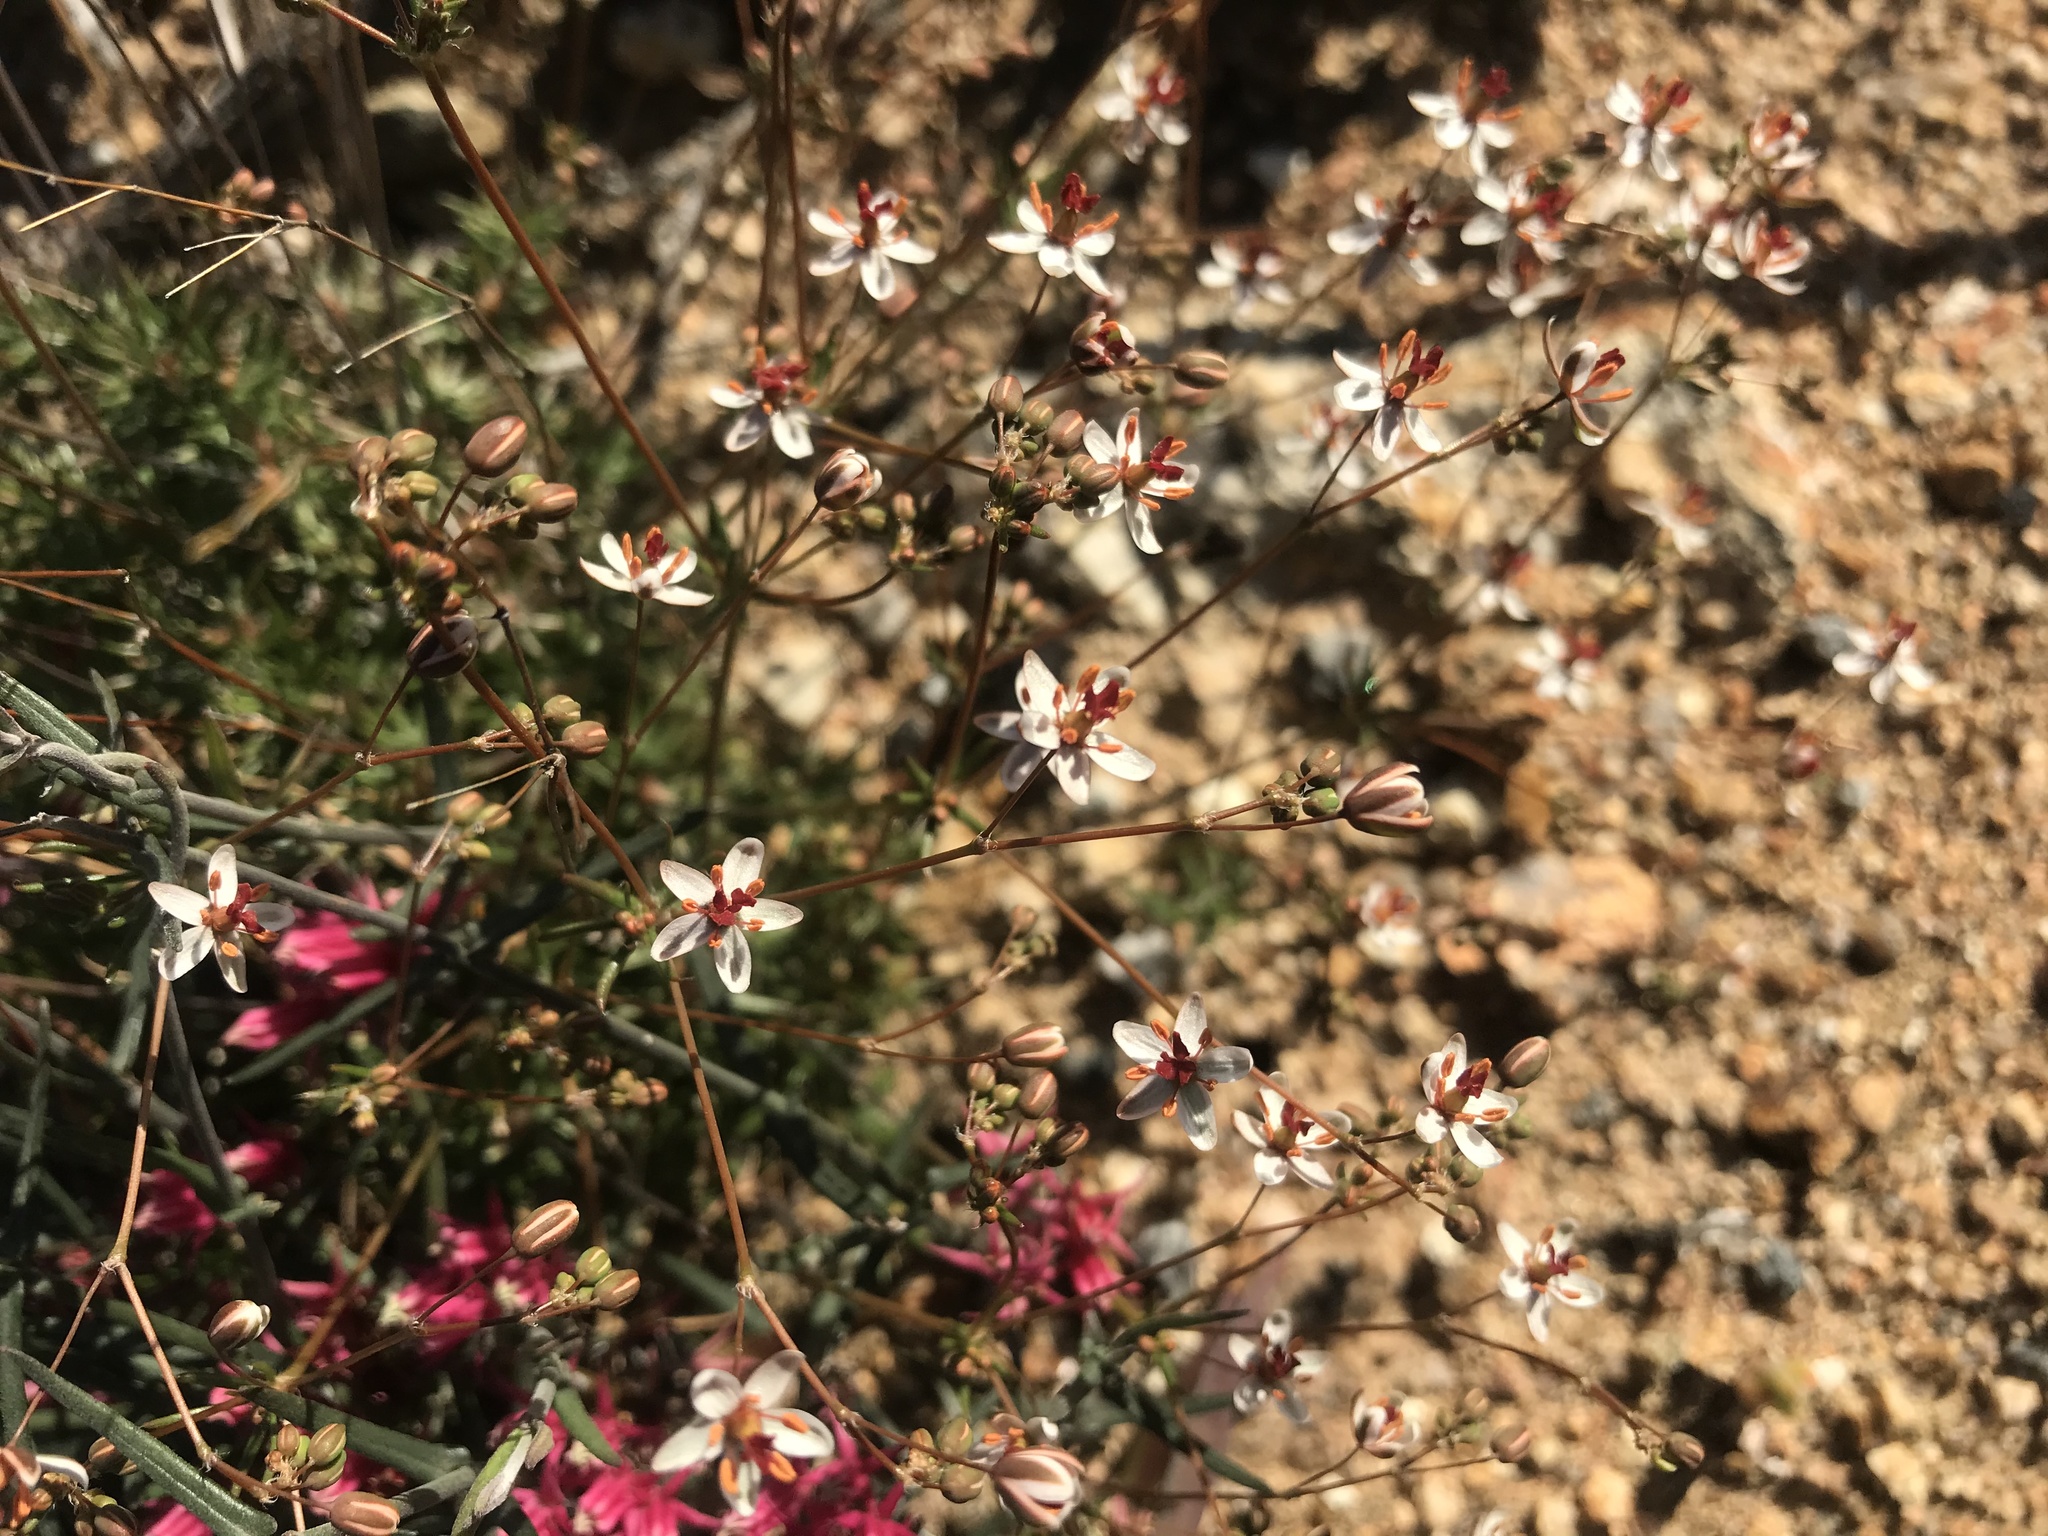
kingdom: Plantae
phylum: Tracheophyta
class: Magnoliopsida
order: Caryophyllales
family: Molluginaceae
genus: Pharnaceum
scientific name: Pharnaceum elongatum
